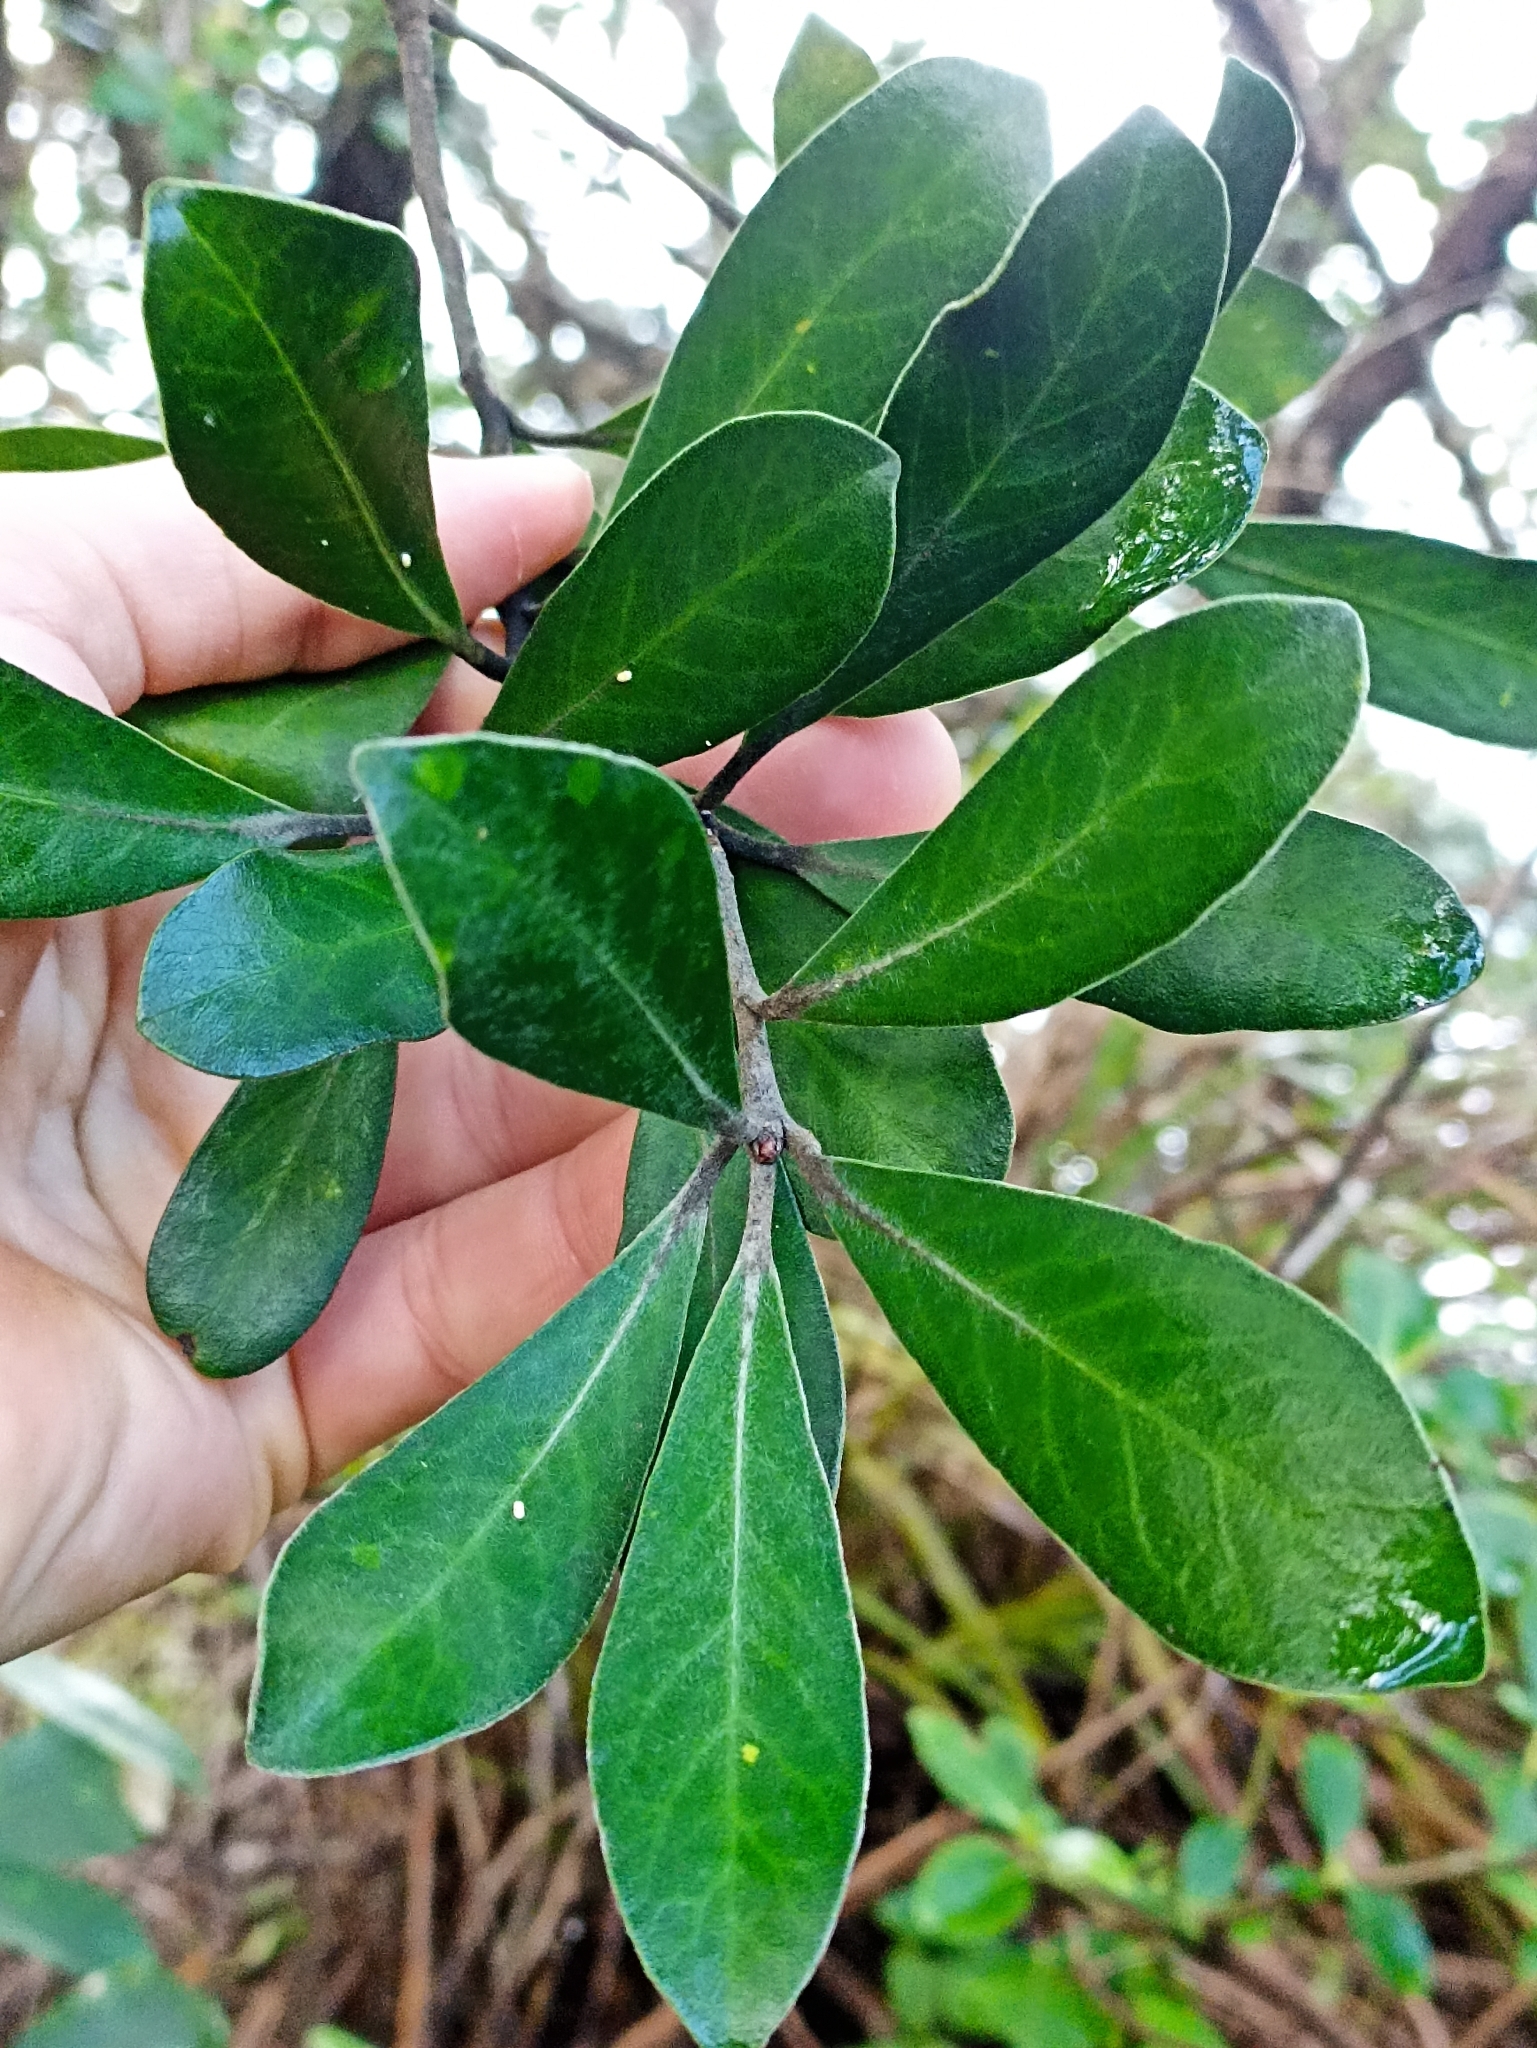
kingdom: Plantae
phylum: Tracheophyta
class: Magnoliopsida
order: Apiales
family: Pittosporaceae
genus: Pittosporum
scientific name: Pittosporum crassifolium
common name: Karo
